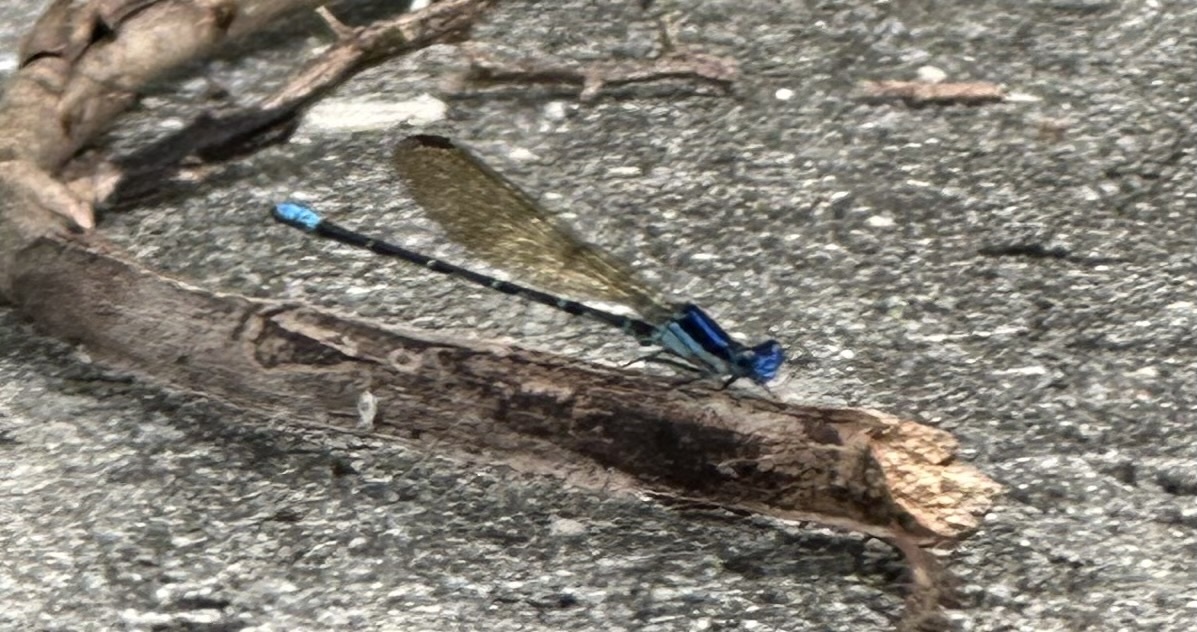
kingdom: Animalia
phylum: Arthropoda
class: Insecta
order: Odonata
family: Coenagrionidae
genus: Argia
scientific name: Argia sedula
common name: Blue-ringed dancer
